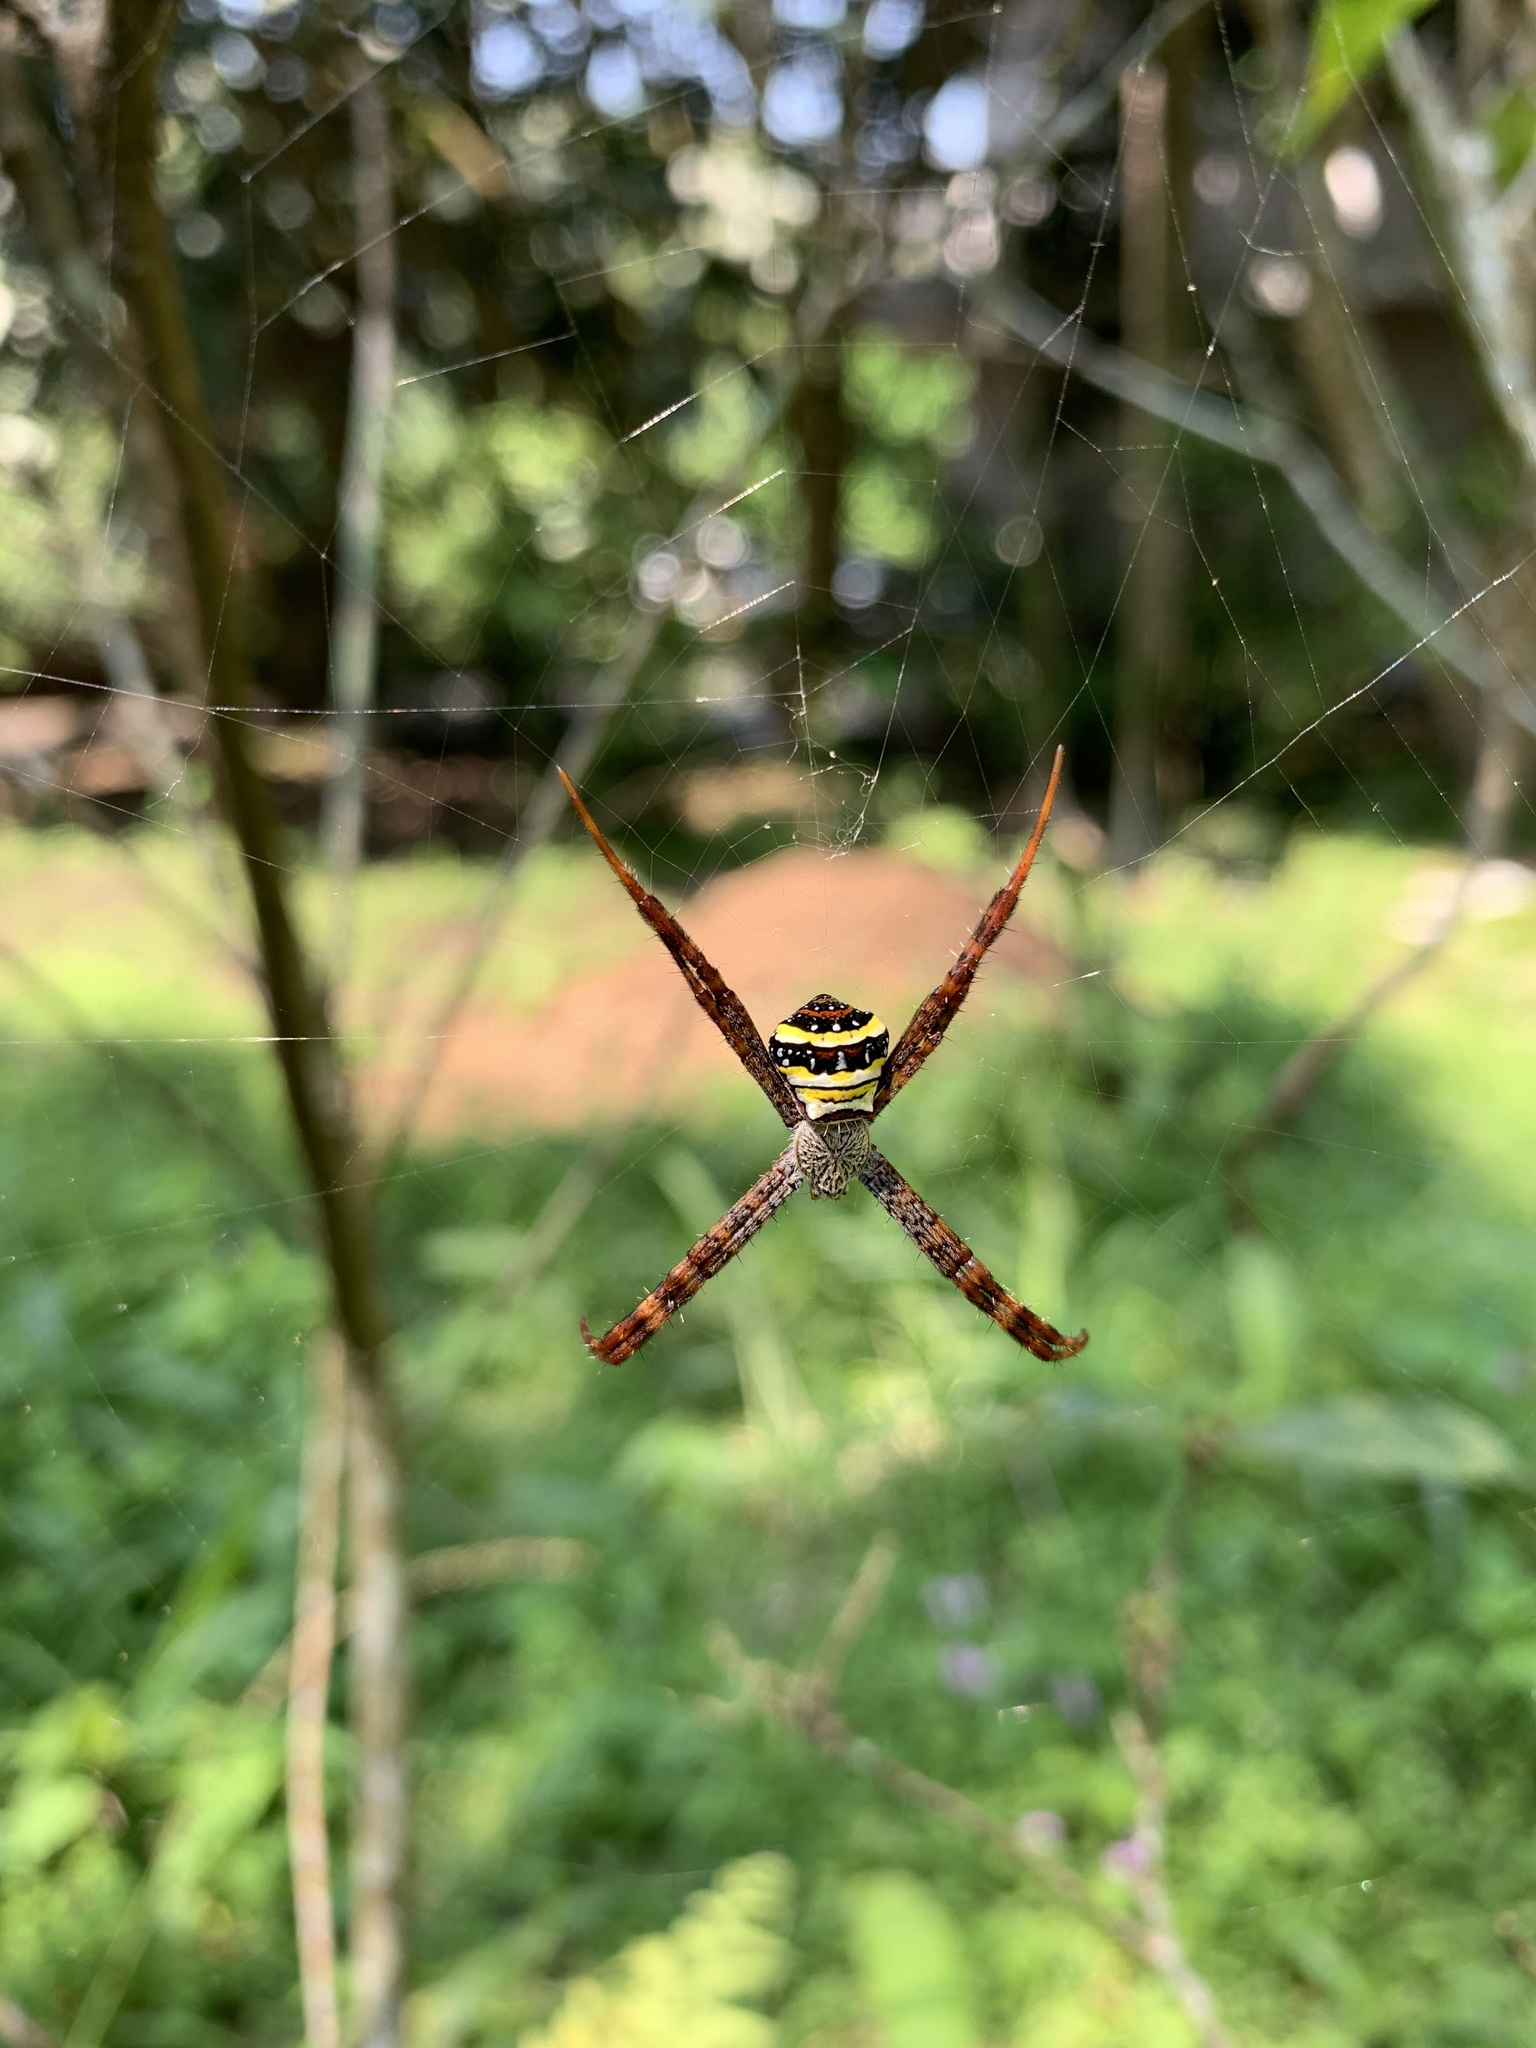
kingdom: Animalia
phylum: Arthropoda
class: Arachnida
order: Araneae
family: Araneidae
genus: Argiope
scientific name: Argiope aetheroides
